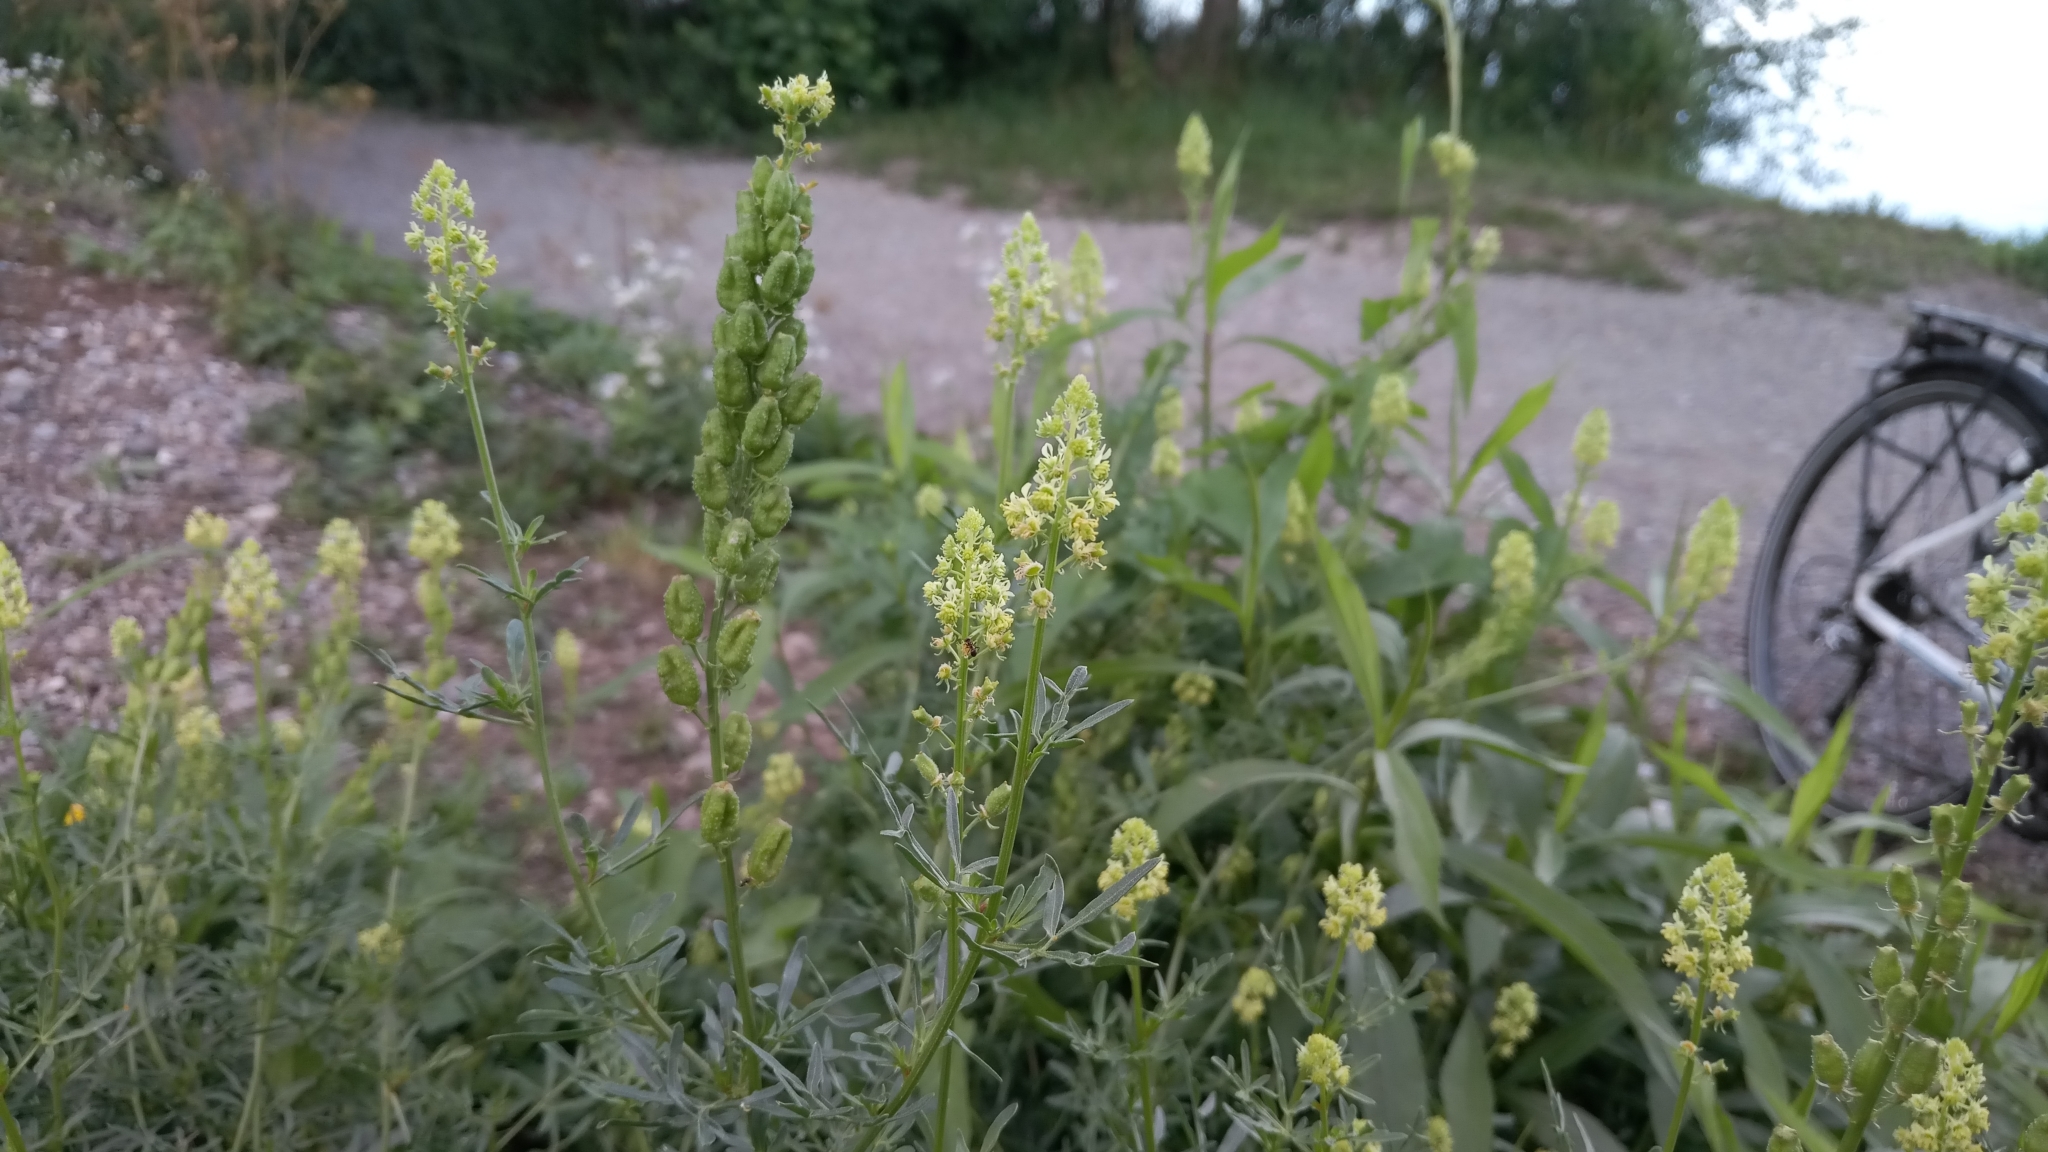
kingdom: Plantae
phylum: Tracheophyta
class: Magnoliopsida
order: Brassicales
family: Resedaceae
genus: Reseda
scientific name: Reseda lutea
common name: Wild mignonette
